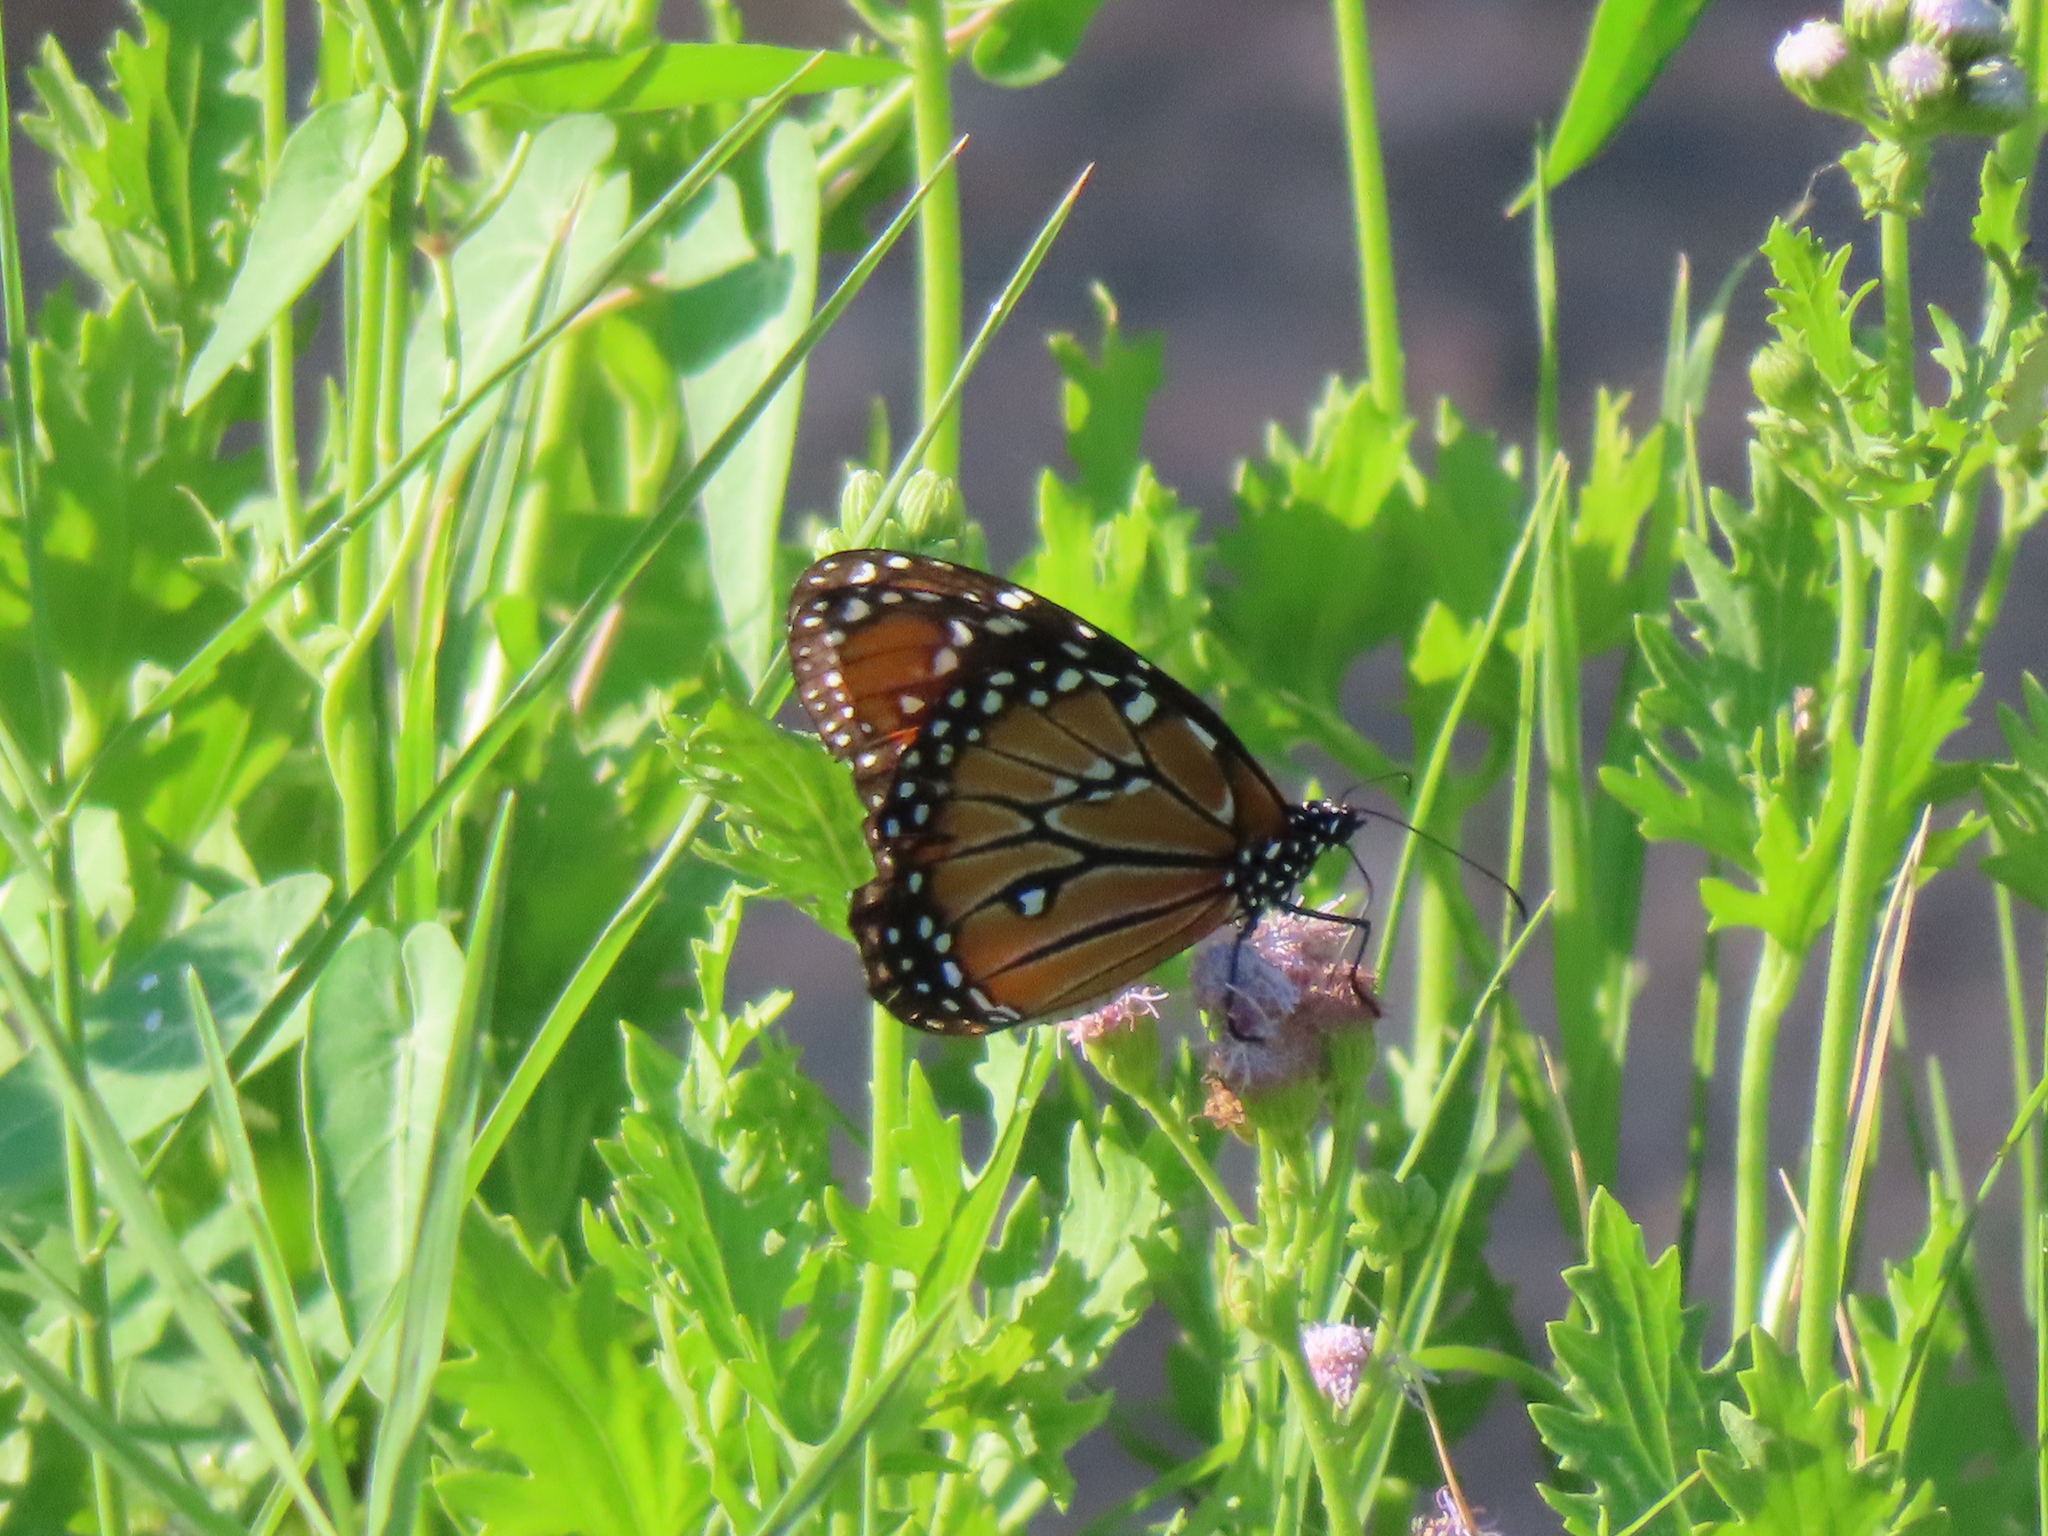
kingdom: Animalia
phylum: Arthropoda
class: Insecta
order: Lepidoptera
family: Nymphalidae
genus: Danaus
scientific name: Danaus gilippus
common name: Queen
